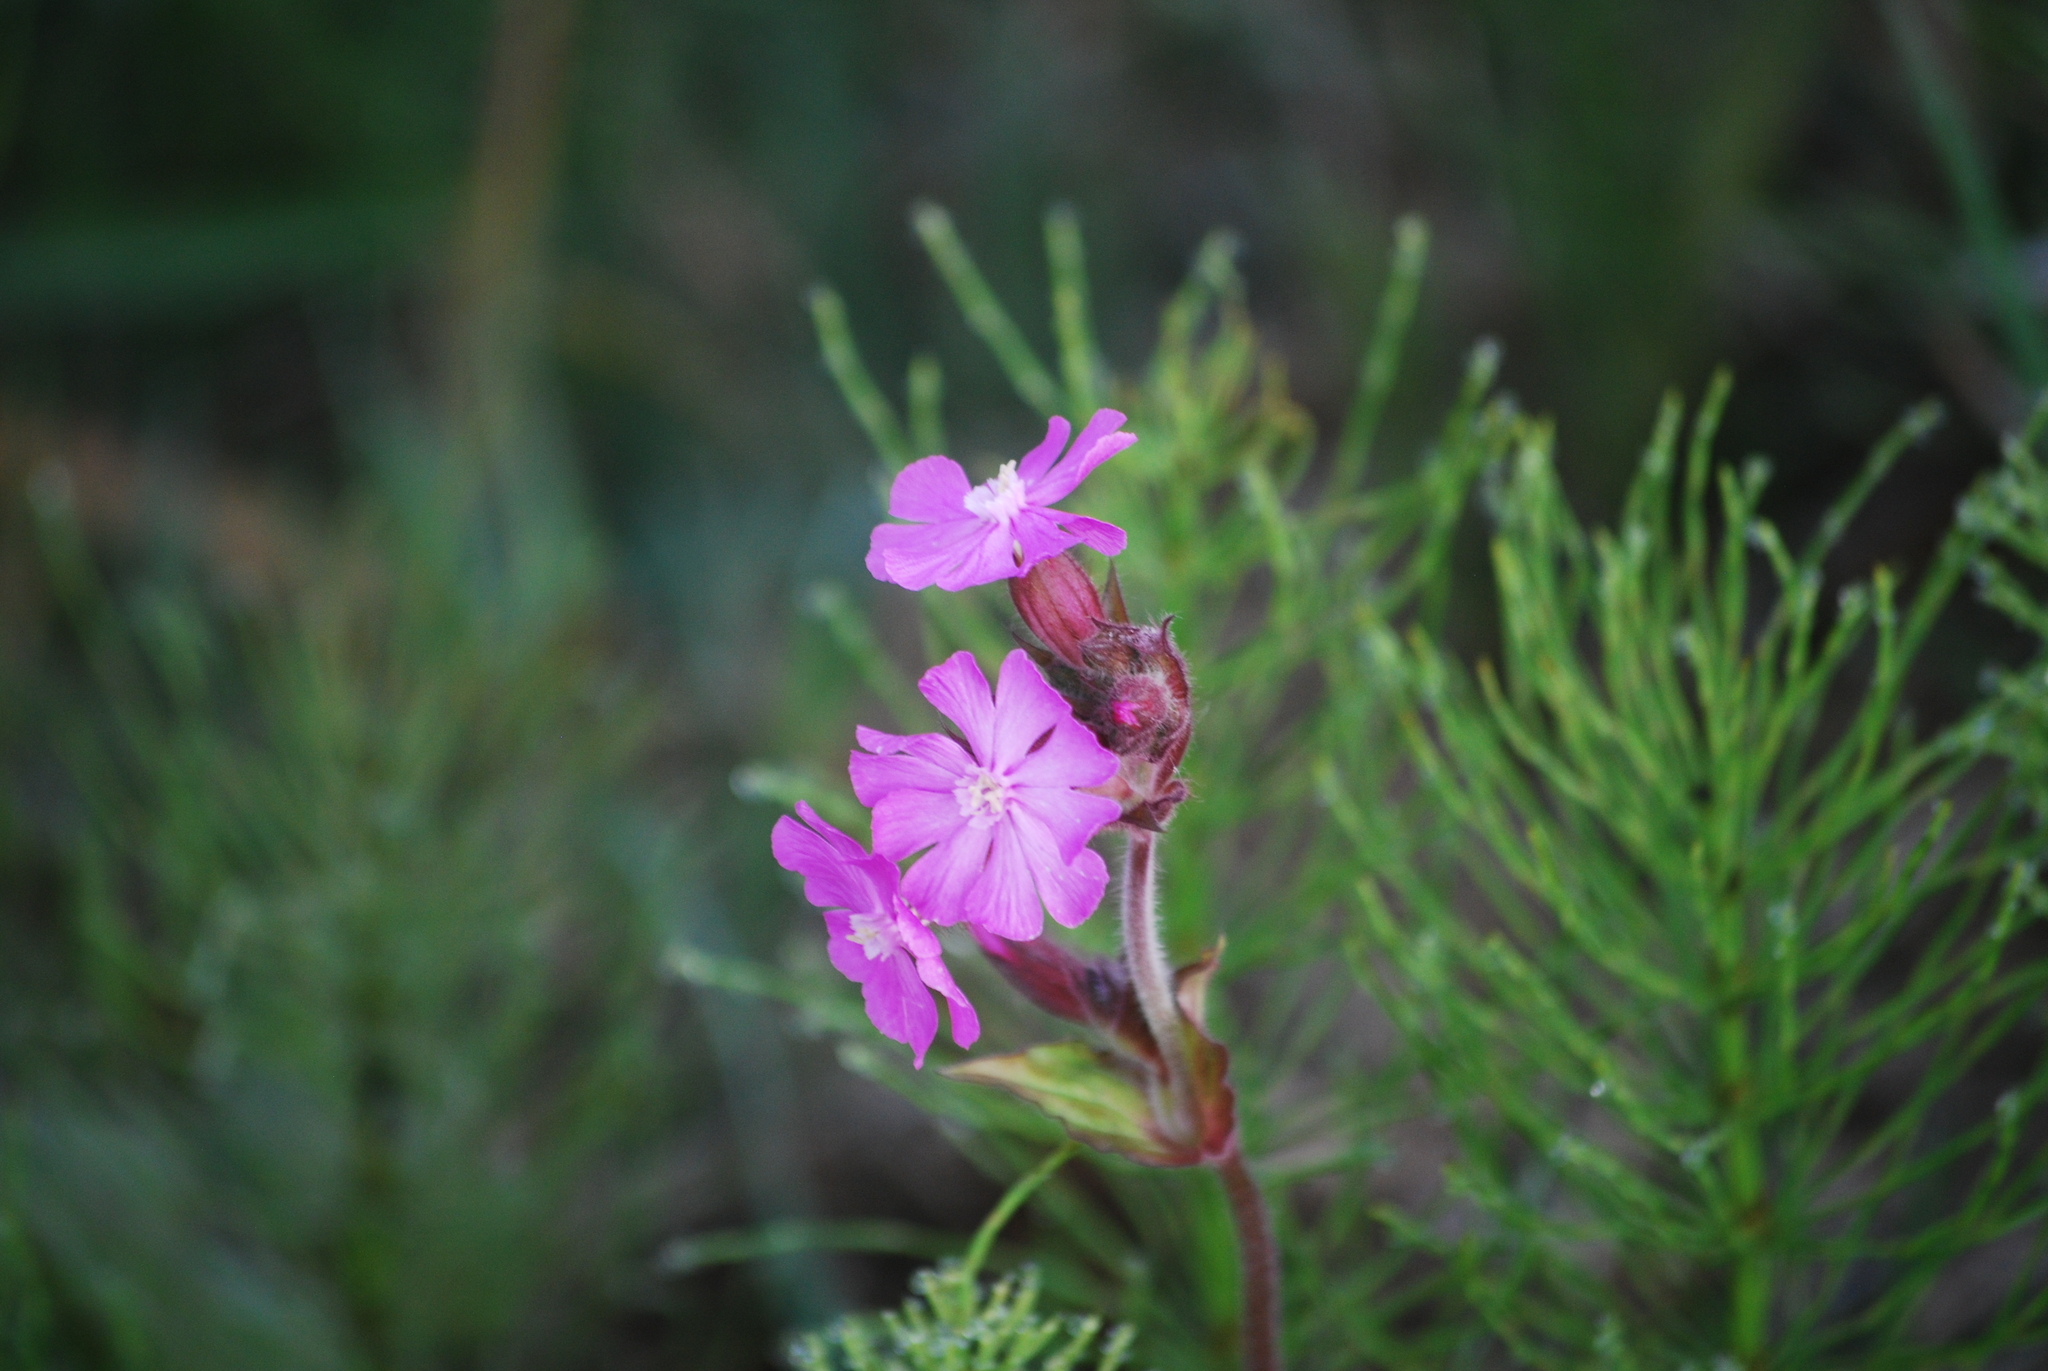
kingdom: Plantae
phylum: Tracheophyta
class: Magnoliopsida
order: Caryophyllales
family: Caryophyllaceae
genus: Silene
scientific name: Silene dioica
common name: Red campion
